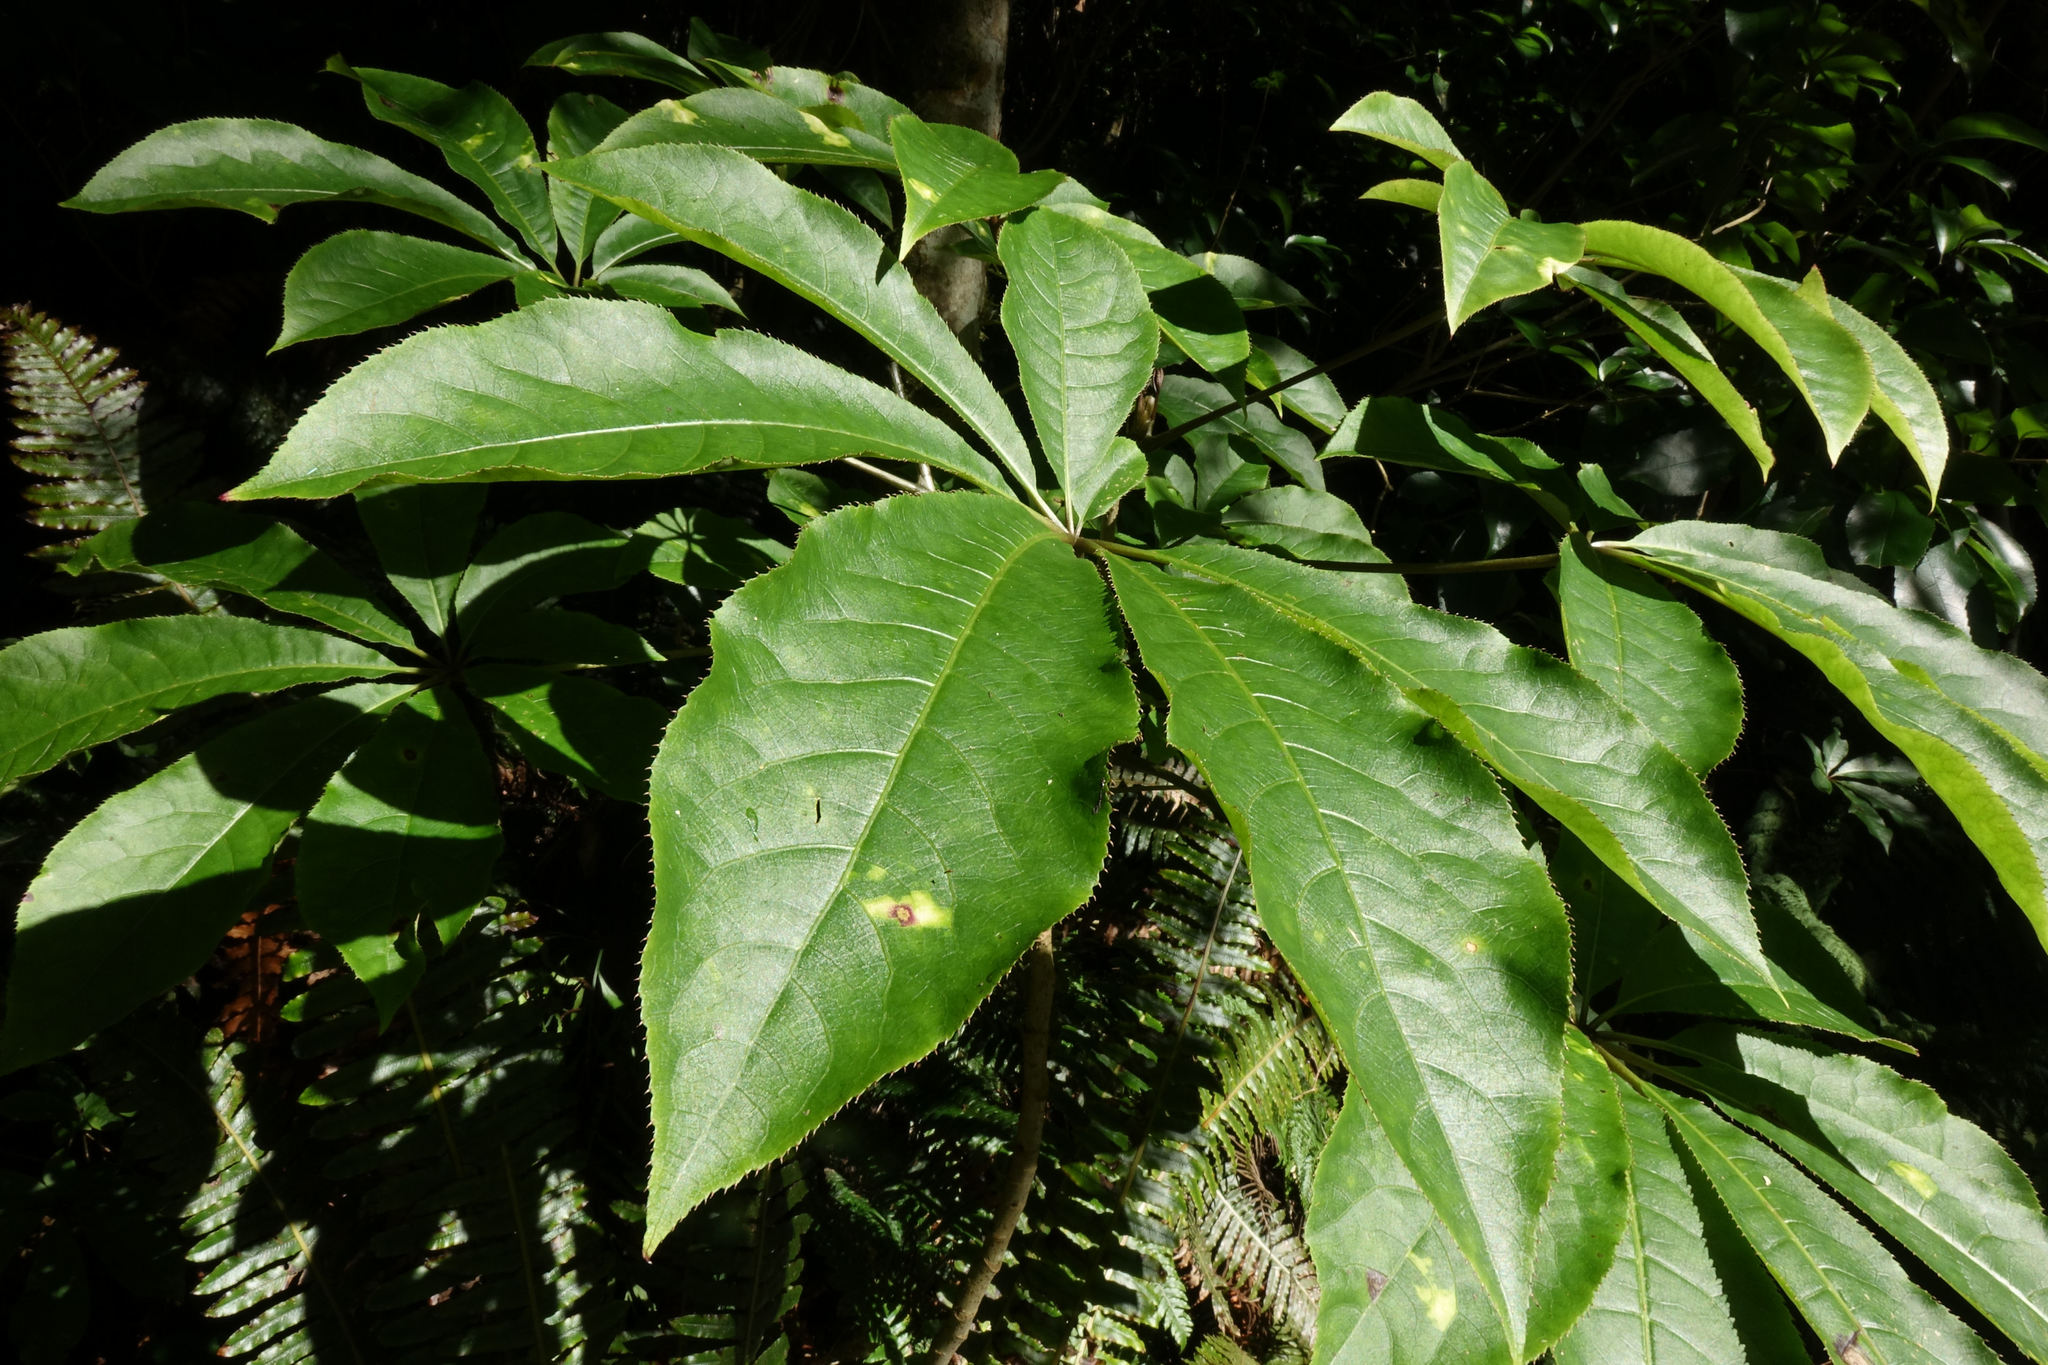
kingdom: Plantae
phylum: Tracheophyta
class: Magnoliopsida
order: Apiales
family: Araliaceae
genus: Schefflera
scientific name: Schefflera digitata
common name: Pate
